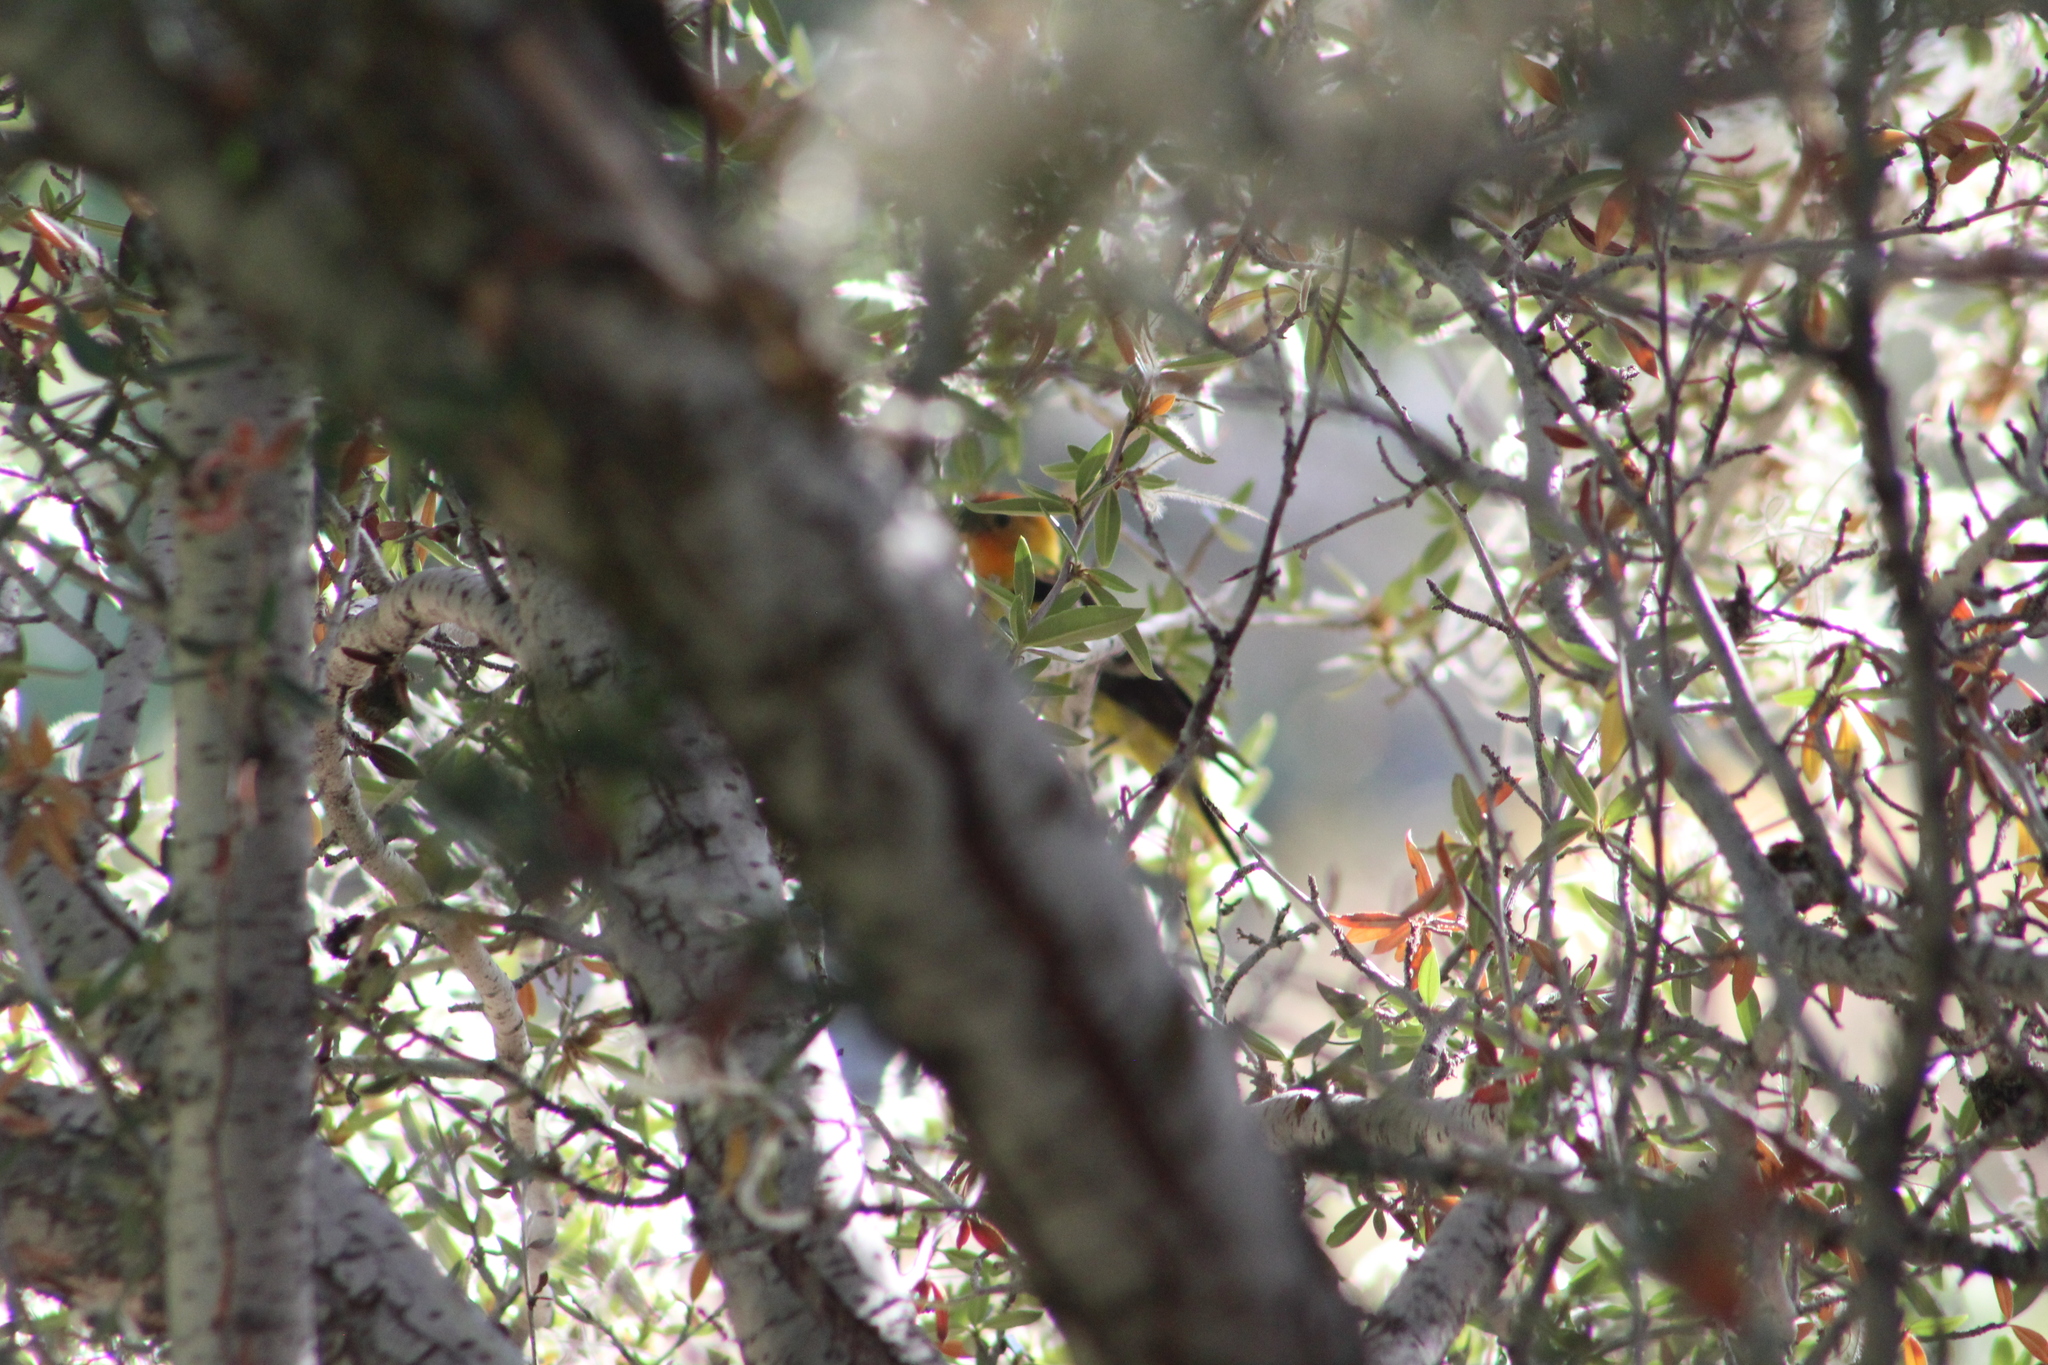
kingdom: Animalia
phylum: Chordata
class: Aves
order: Passeriformes
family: Cardinalidae
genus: Piranga
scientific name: Piranga ludoviciana
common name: Western tanager
